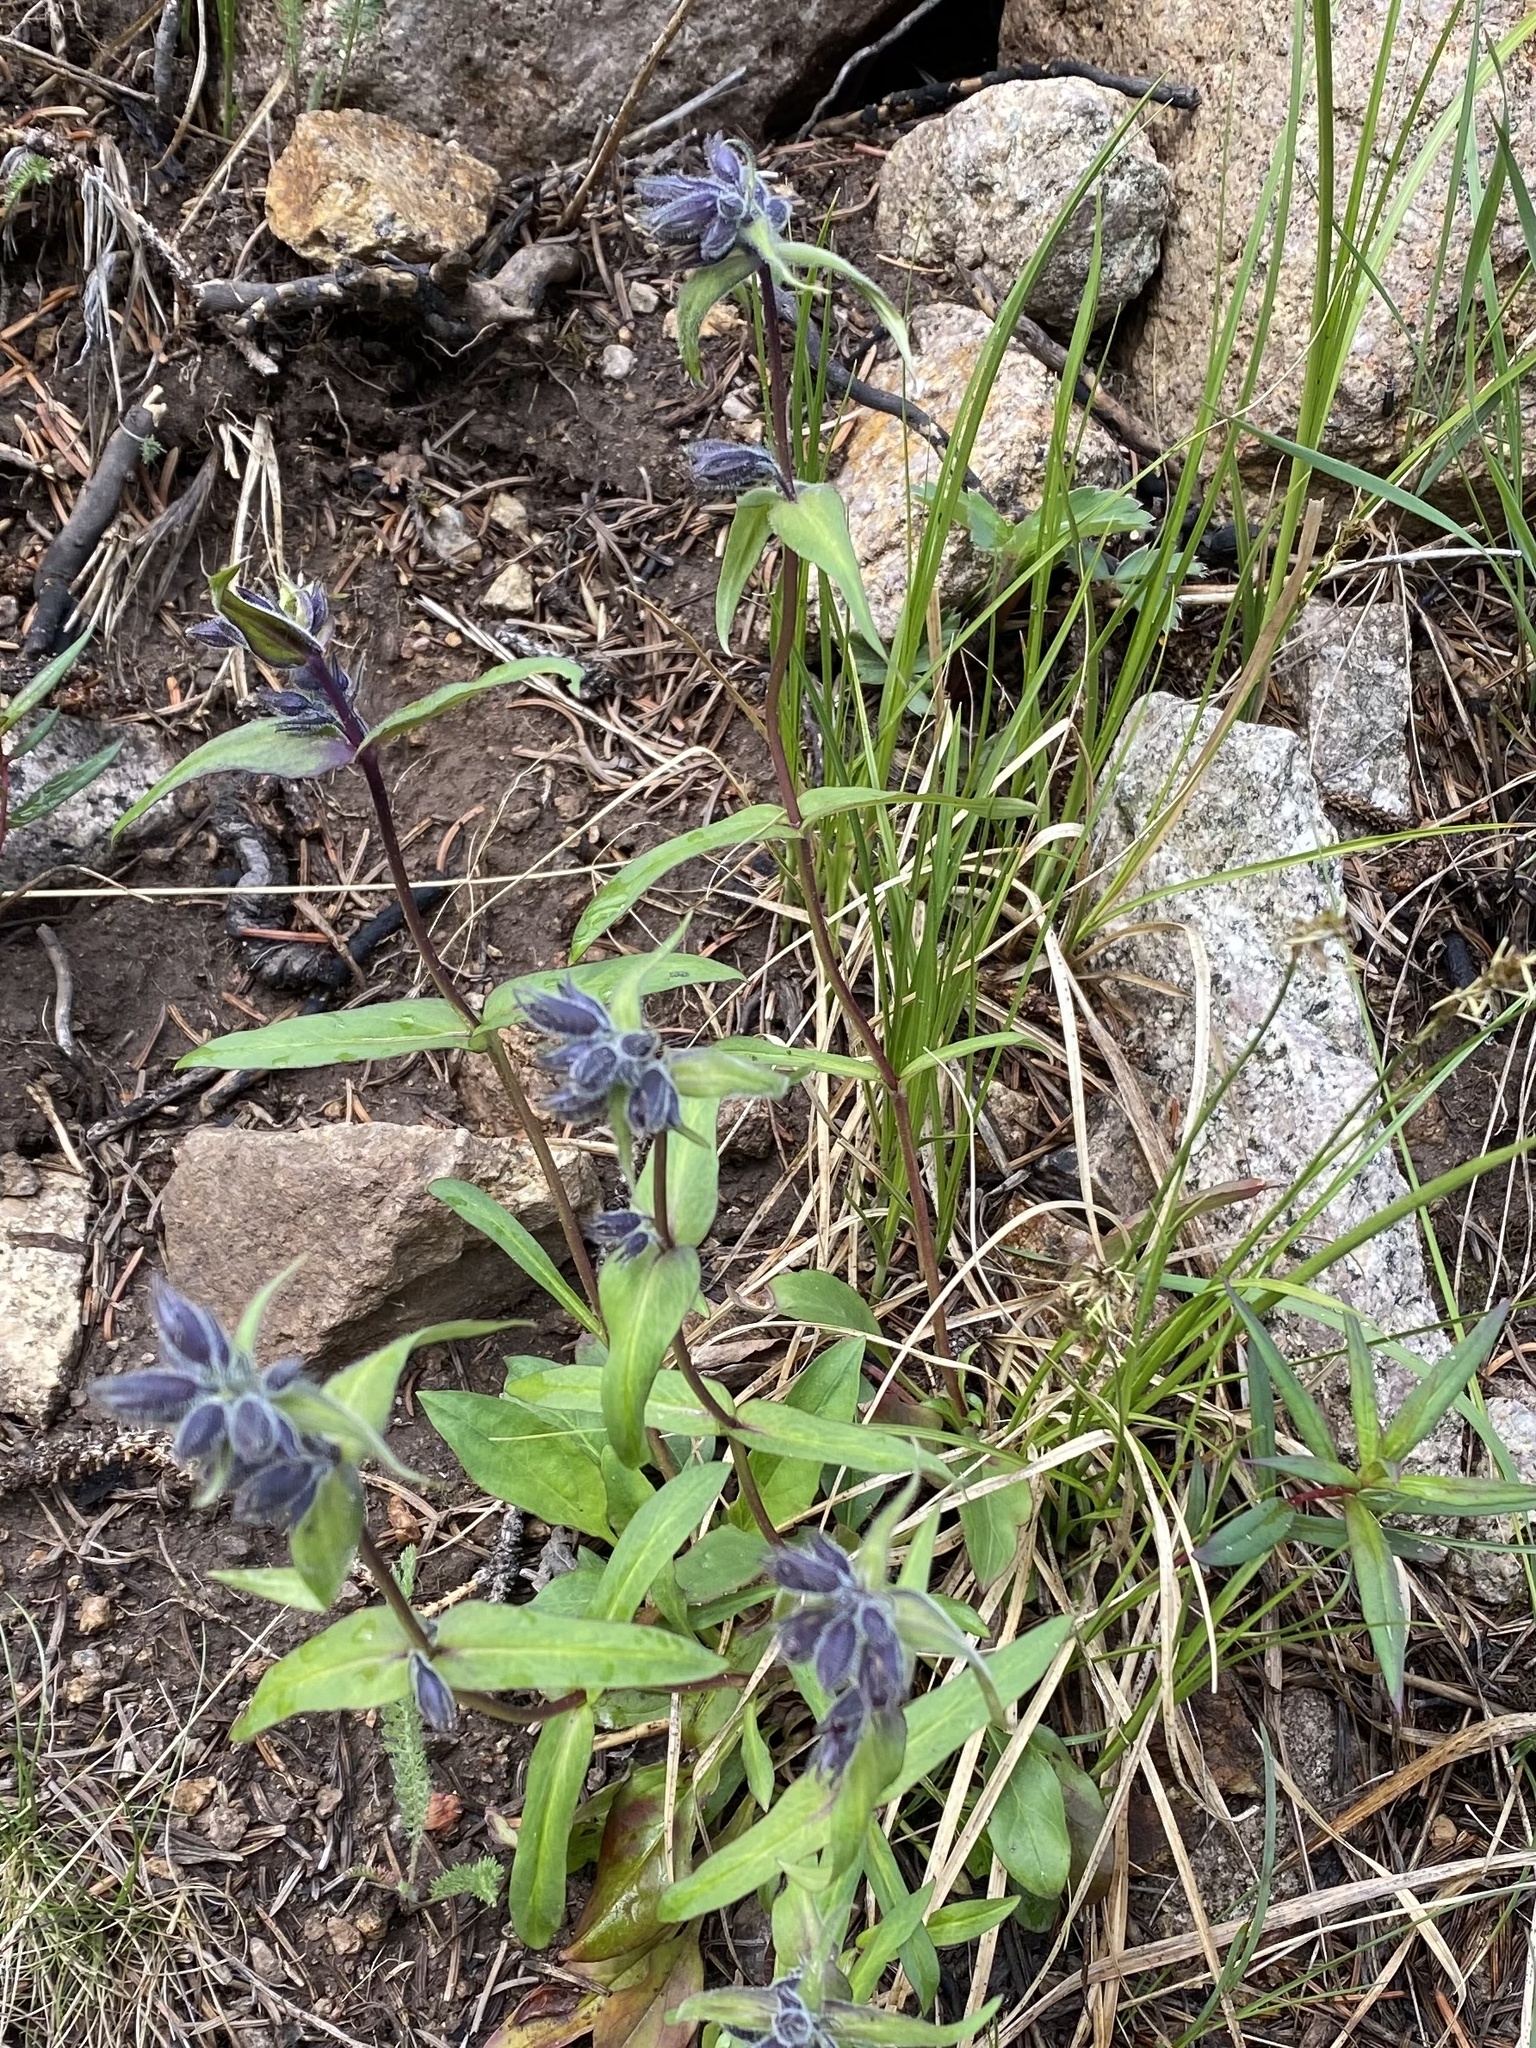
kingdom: Plantae
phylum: Tracheophyta
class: Magnoliopsida
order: Lamiales
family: Plantaginaceae
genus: Penstemon
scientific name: Penstemon whippleanus
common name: Whipple's penstemon
